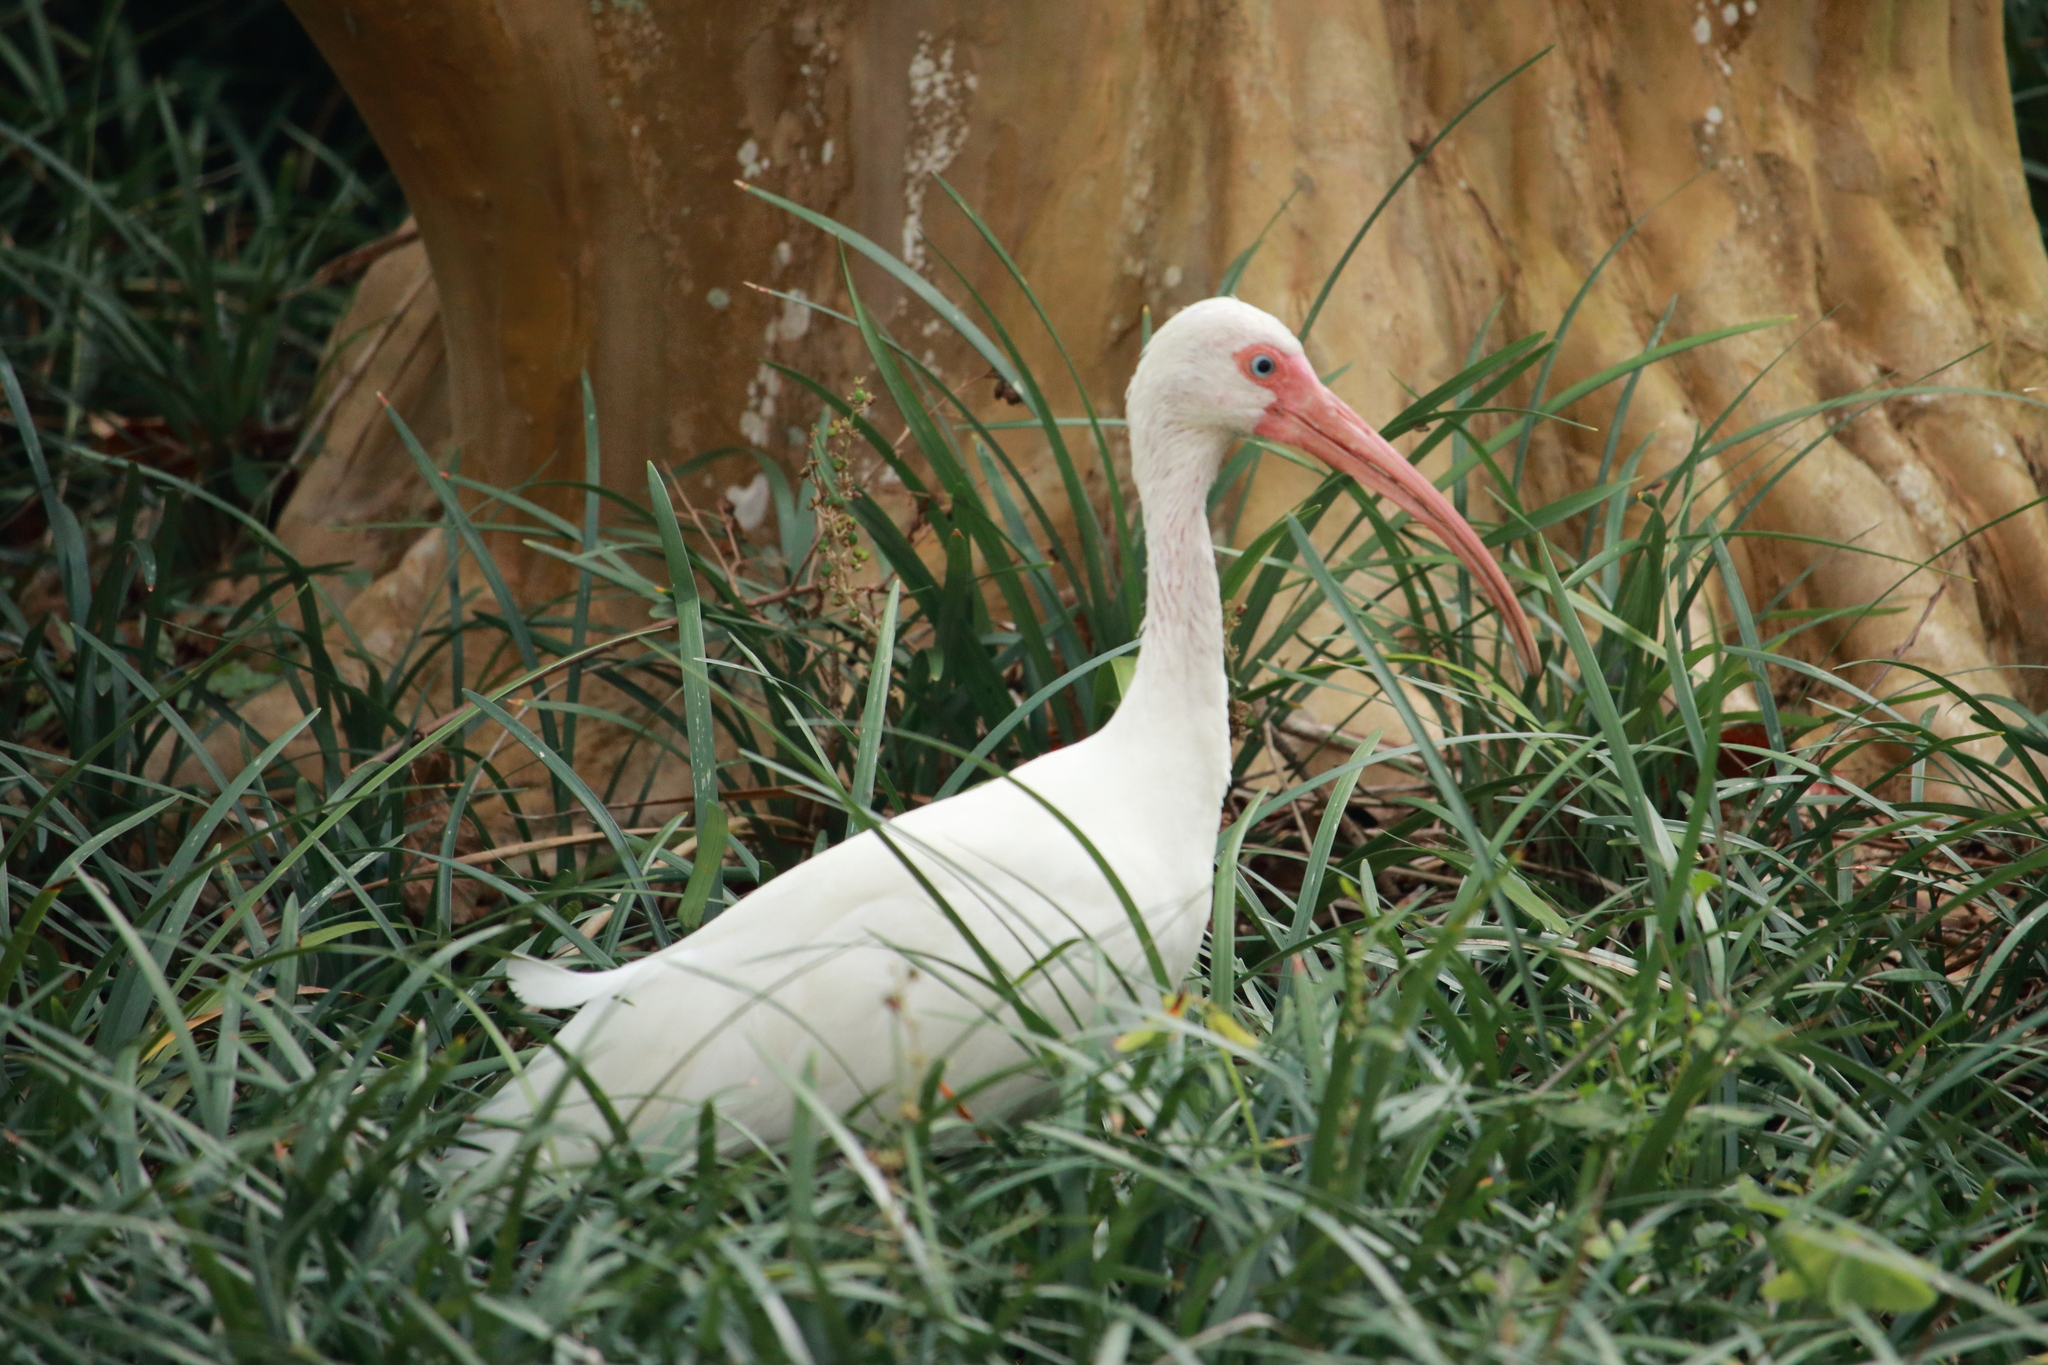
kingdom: Animalia
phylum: Chordata
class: Aves
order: Pelecaniformes
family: Threskiornithidae
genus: Eudocimus
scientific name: Eudocimus albus
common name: White ibis
